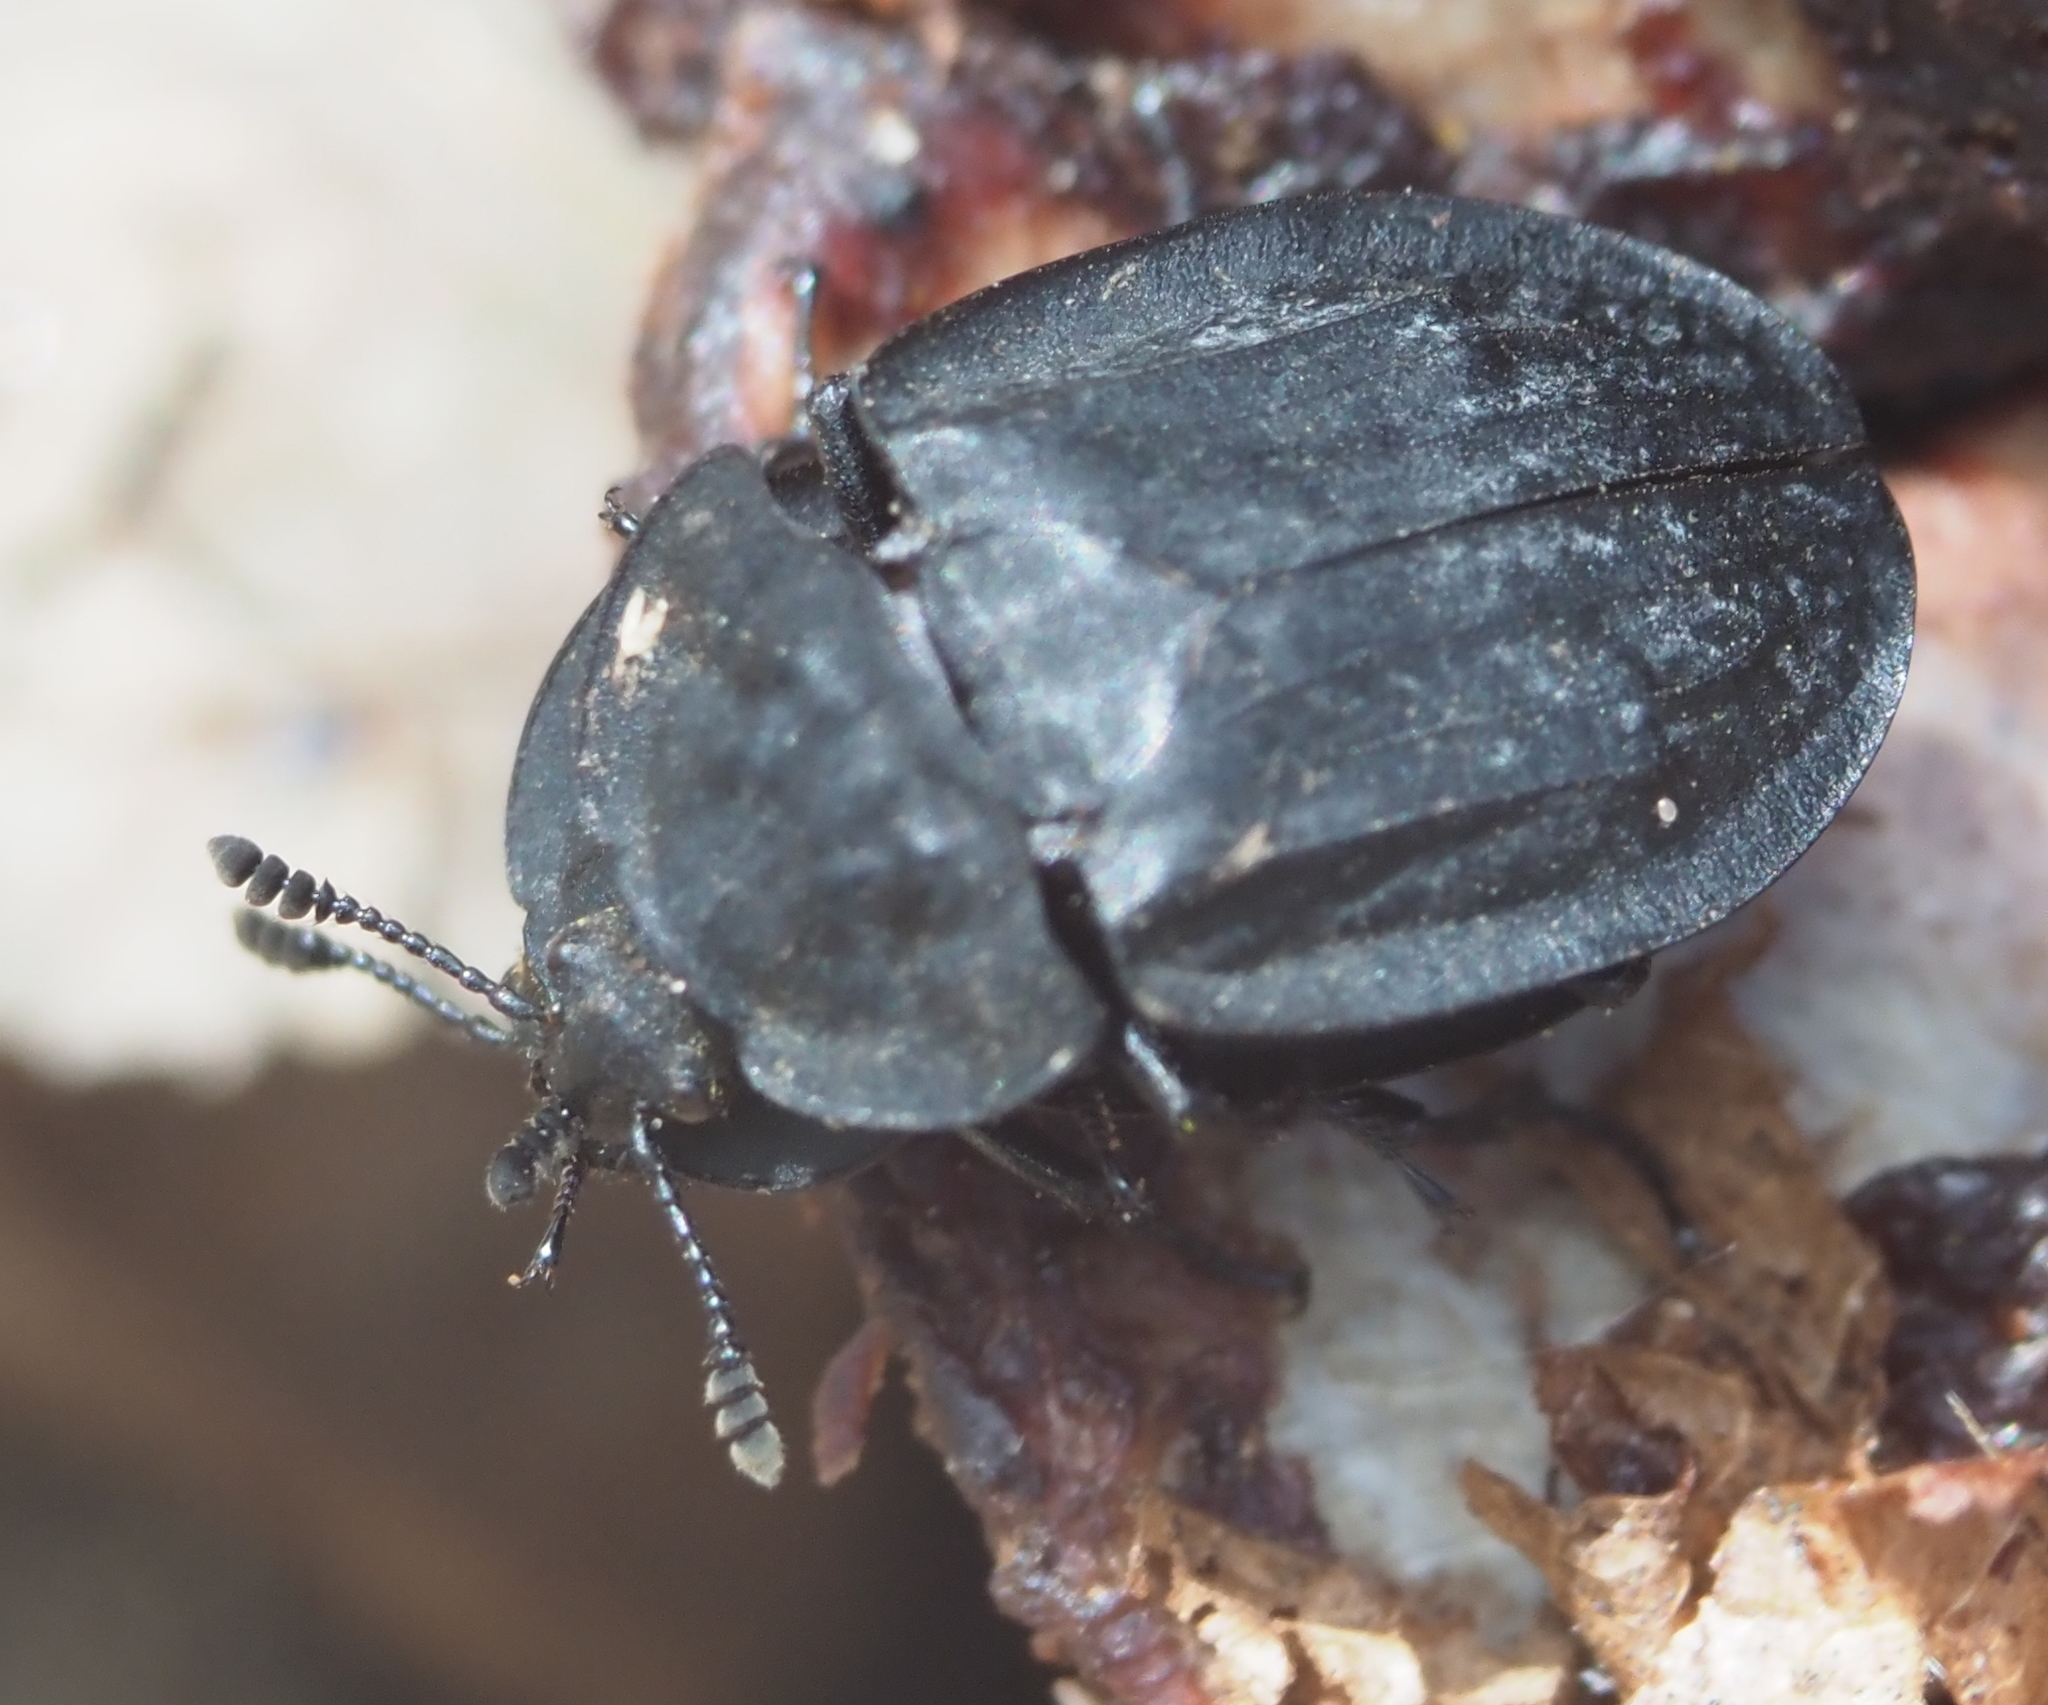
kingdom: Animalia
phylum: Arthropoda
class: Insecta
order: Coleoptera
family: Staphylinidae
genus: Oiceoptoma
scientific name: Oiceoptoma inaequale
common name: Ridged carrion beetle
